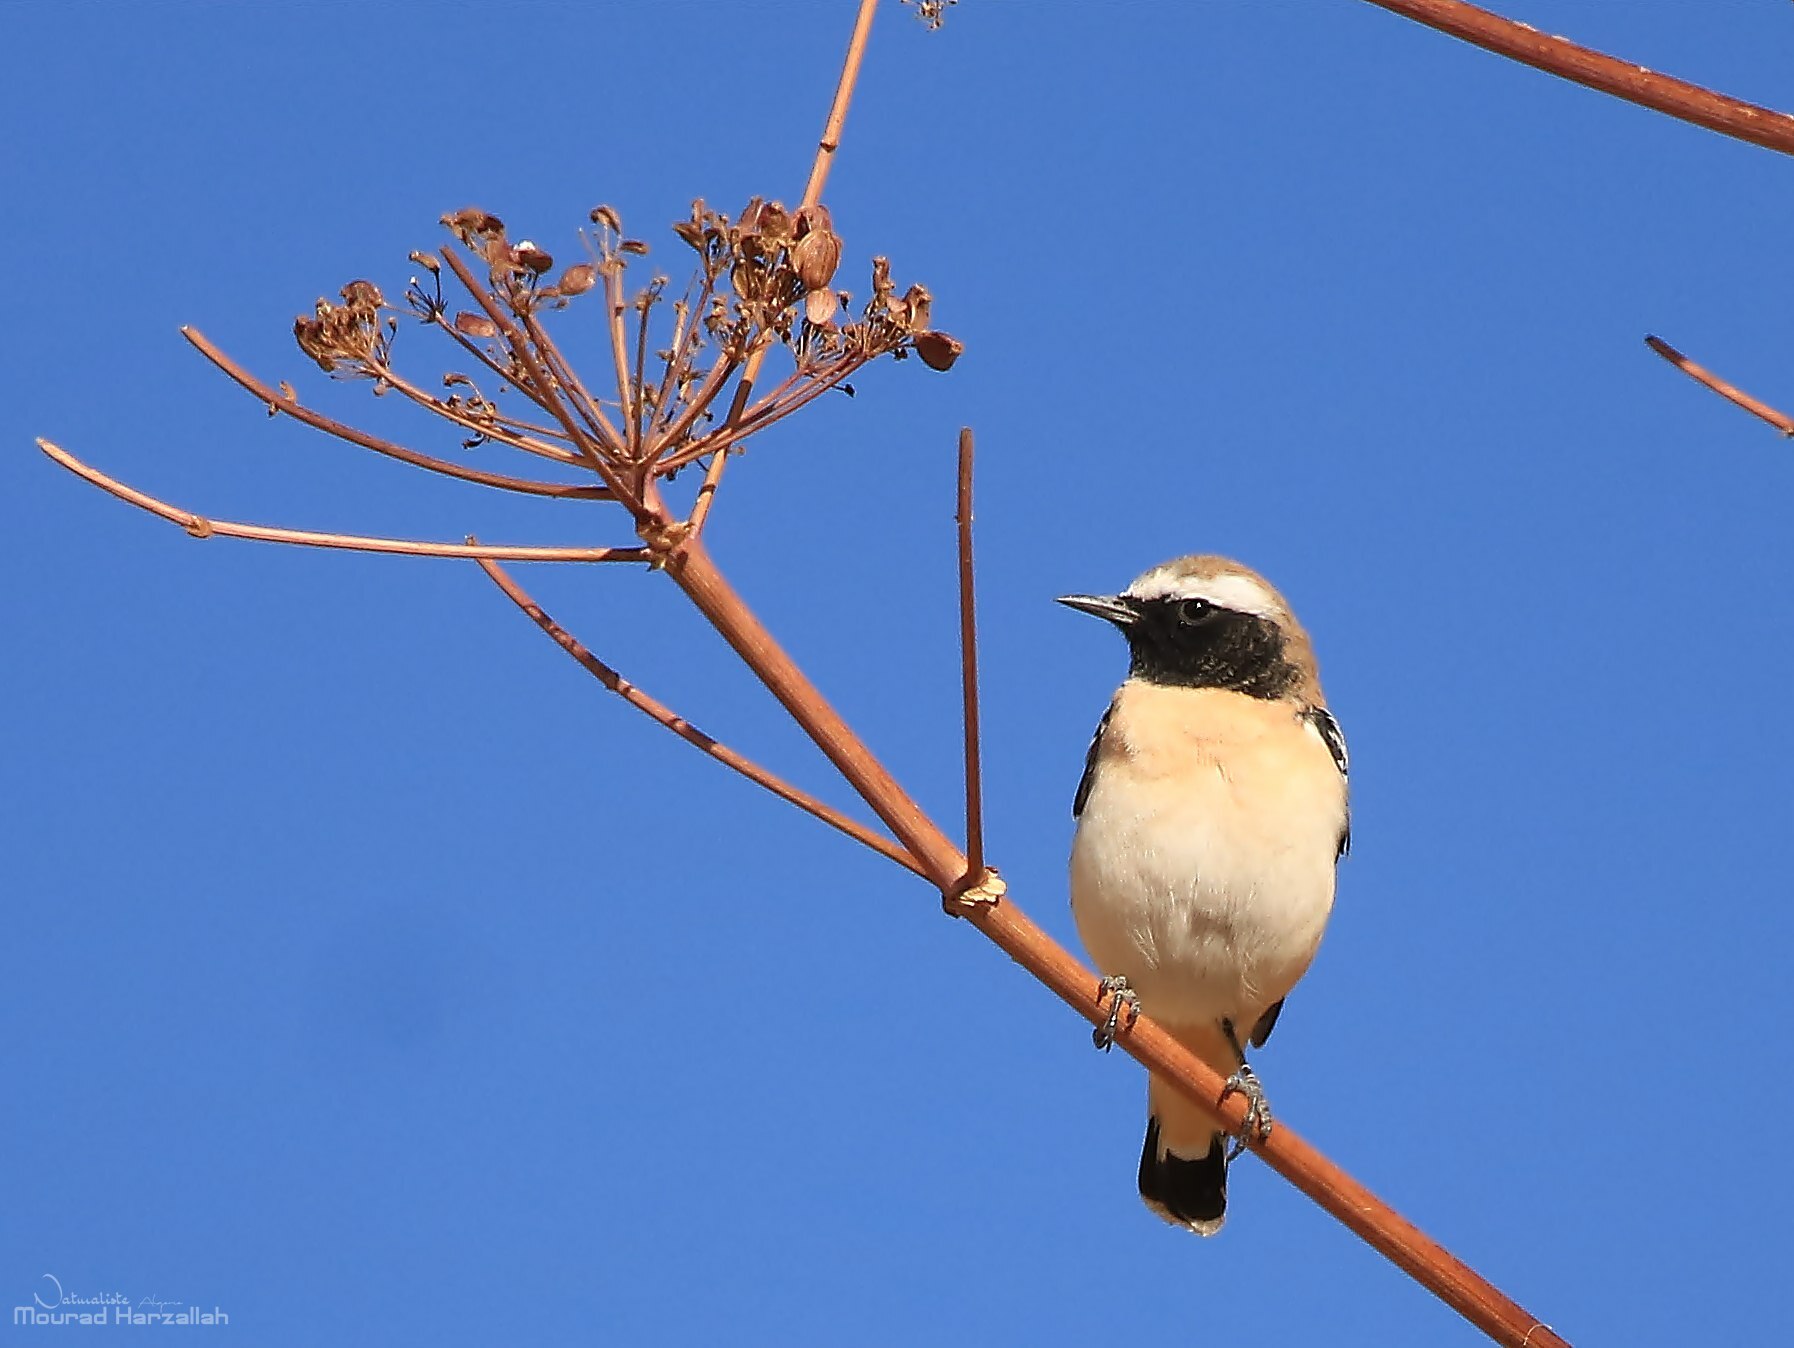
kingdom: Animalia
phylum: Chordata
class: Aves
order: Passeriformes
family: Muscicapidae
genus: Oenanthe
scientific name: Oenanthe oenanthe
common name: Northern wheatear
